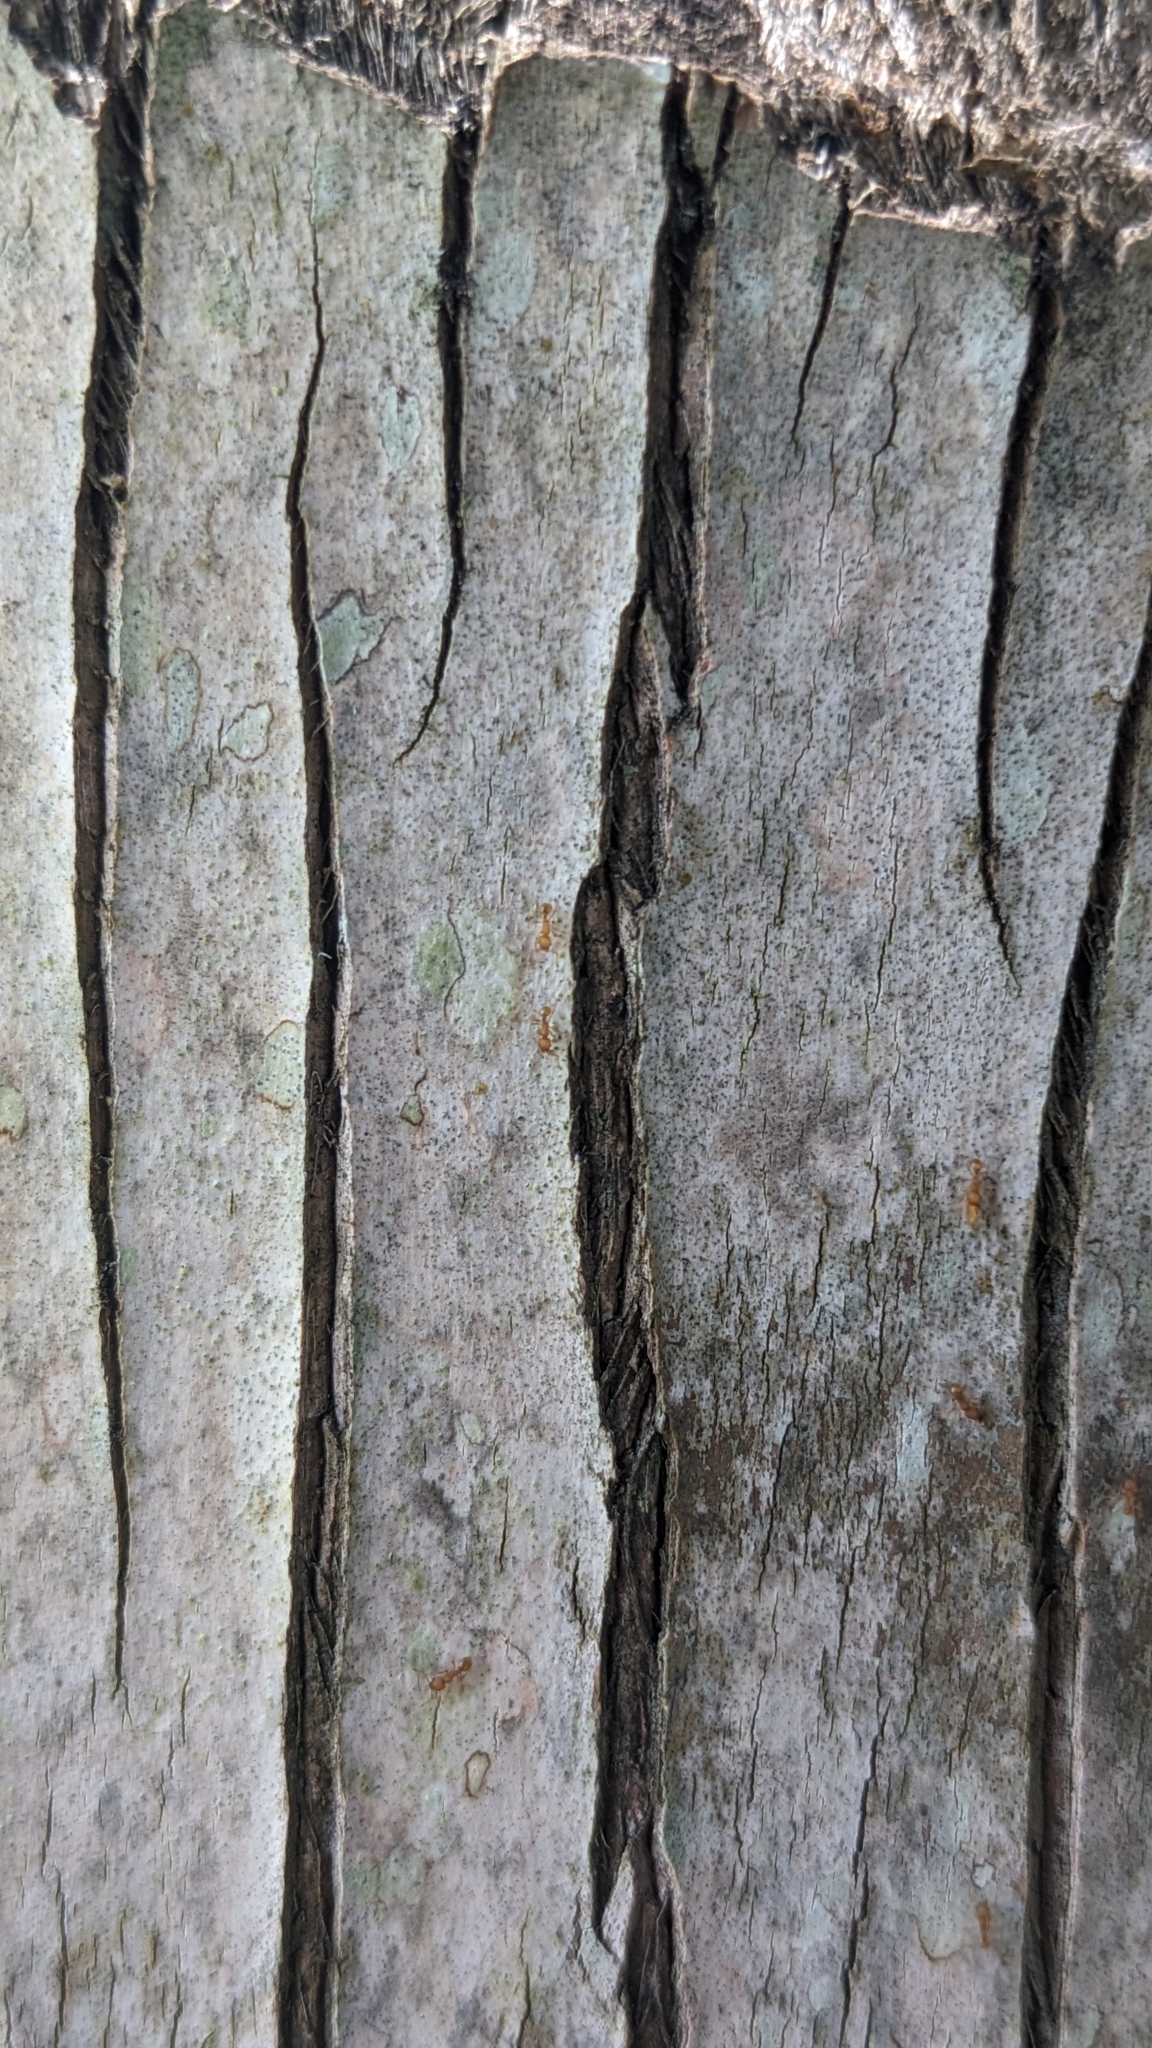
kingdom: Animalia
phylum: Arthropoda
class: Insecta
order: Hymenoptera
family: Formicidae
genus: Wasmannia
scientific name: Wasmannia auropunctata
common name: Little fire ant
